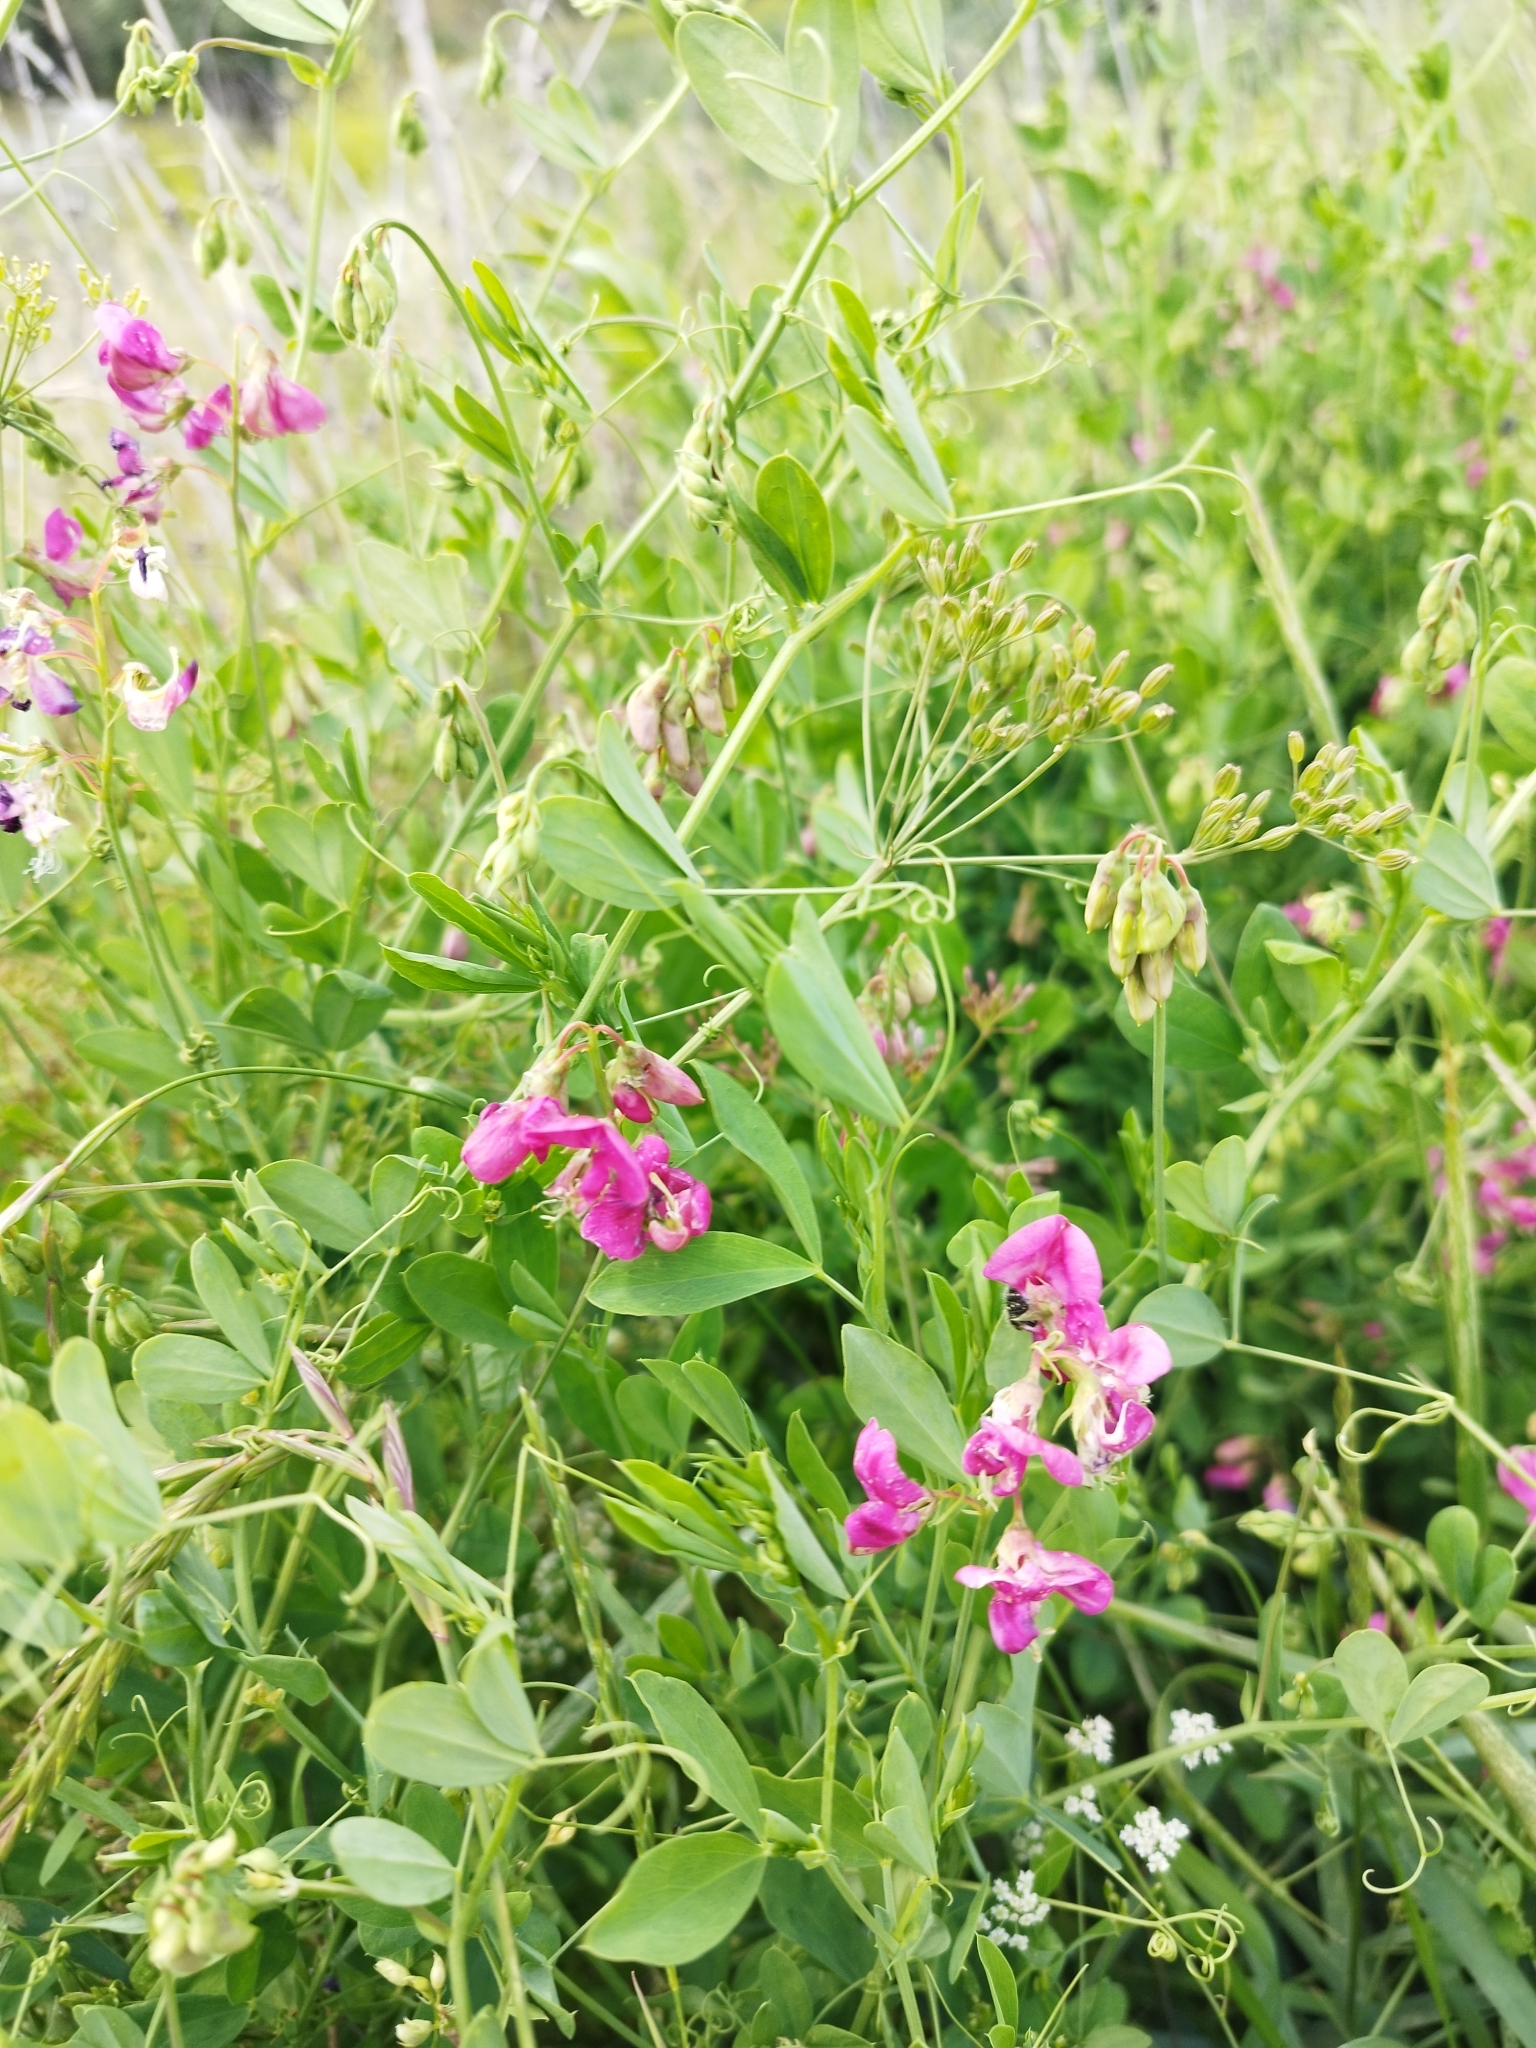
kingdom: Plantae
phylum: Tracheophyta
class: Magnoliopsida
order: Fabales
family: Fabaceae
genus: Lathyrus
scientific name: Lathyrus tuberosus
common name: Tuberous pea
